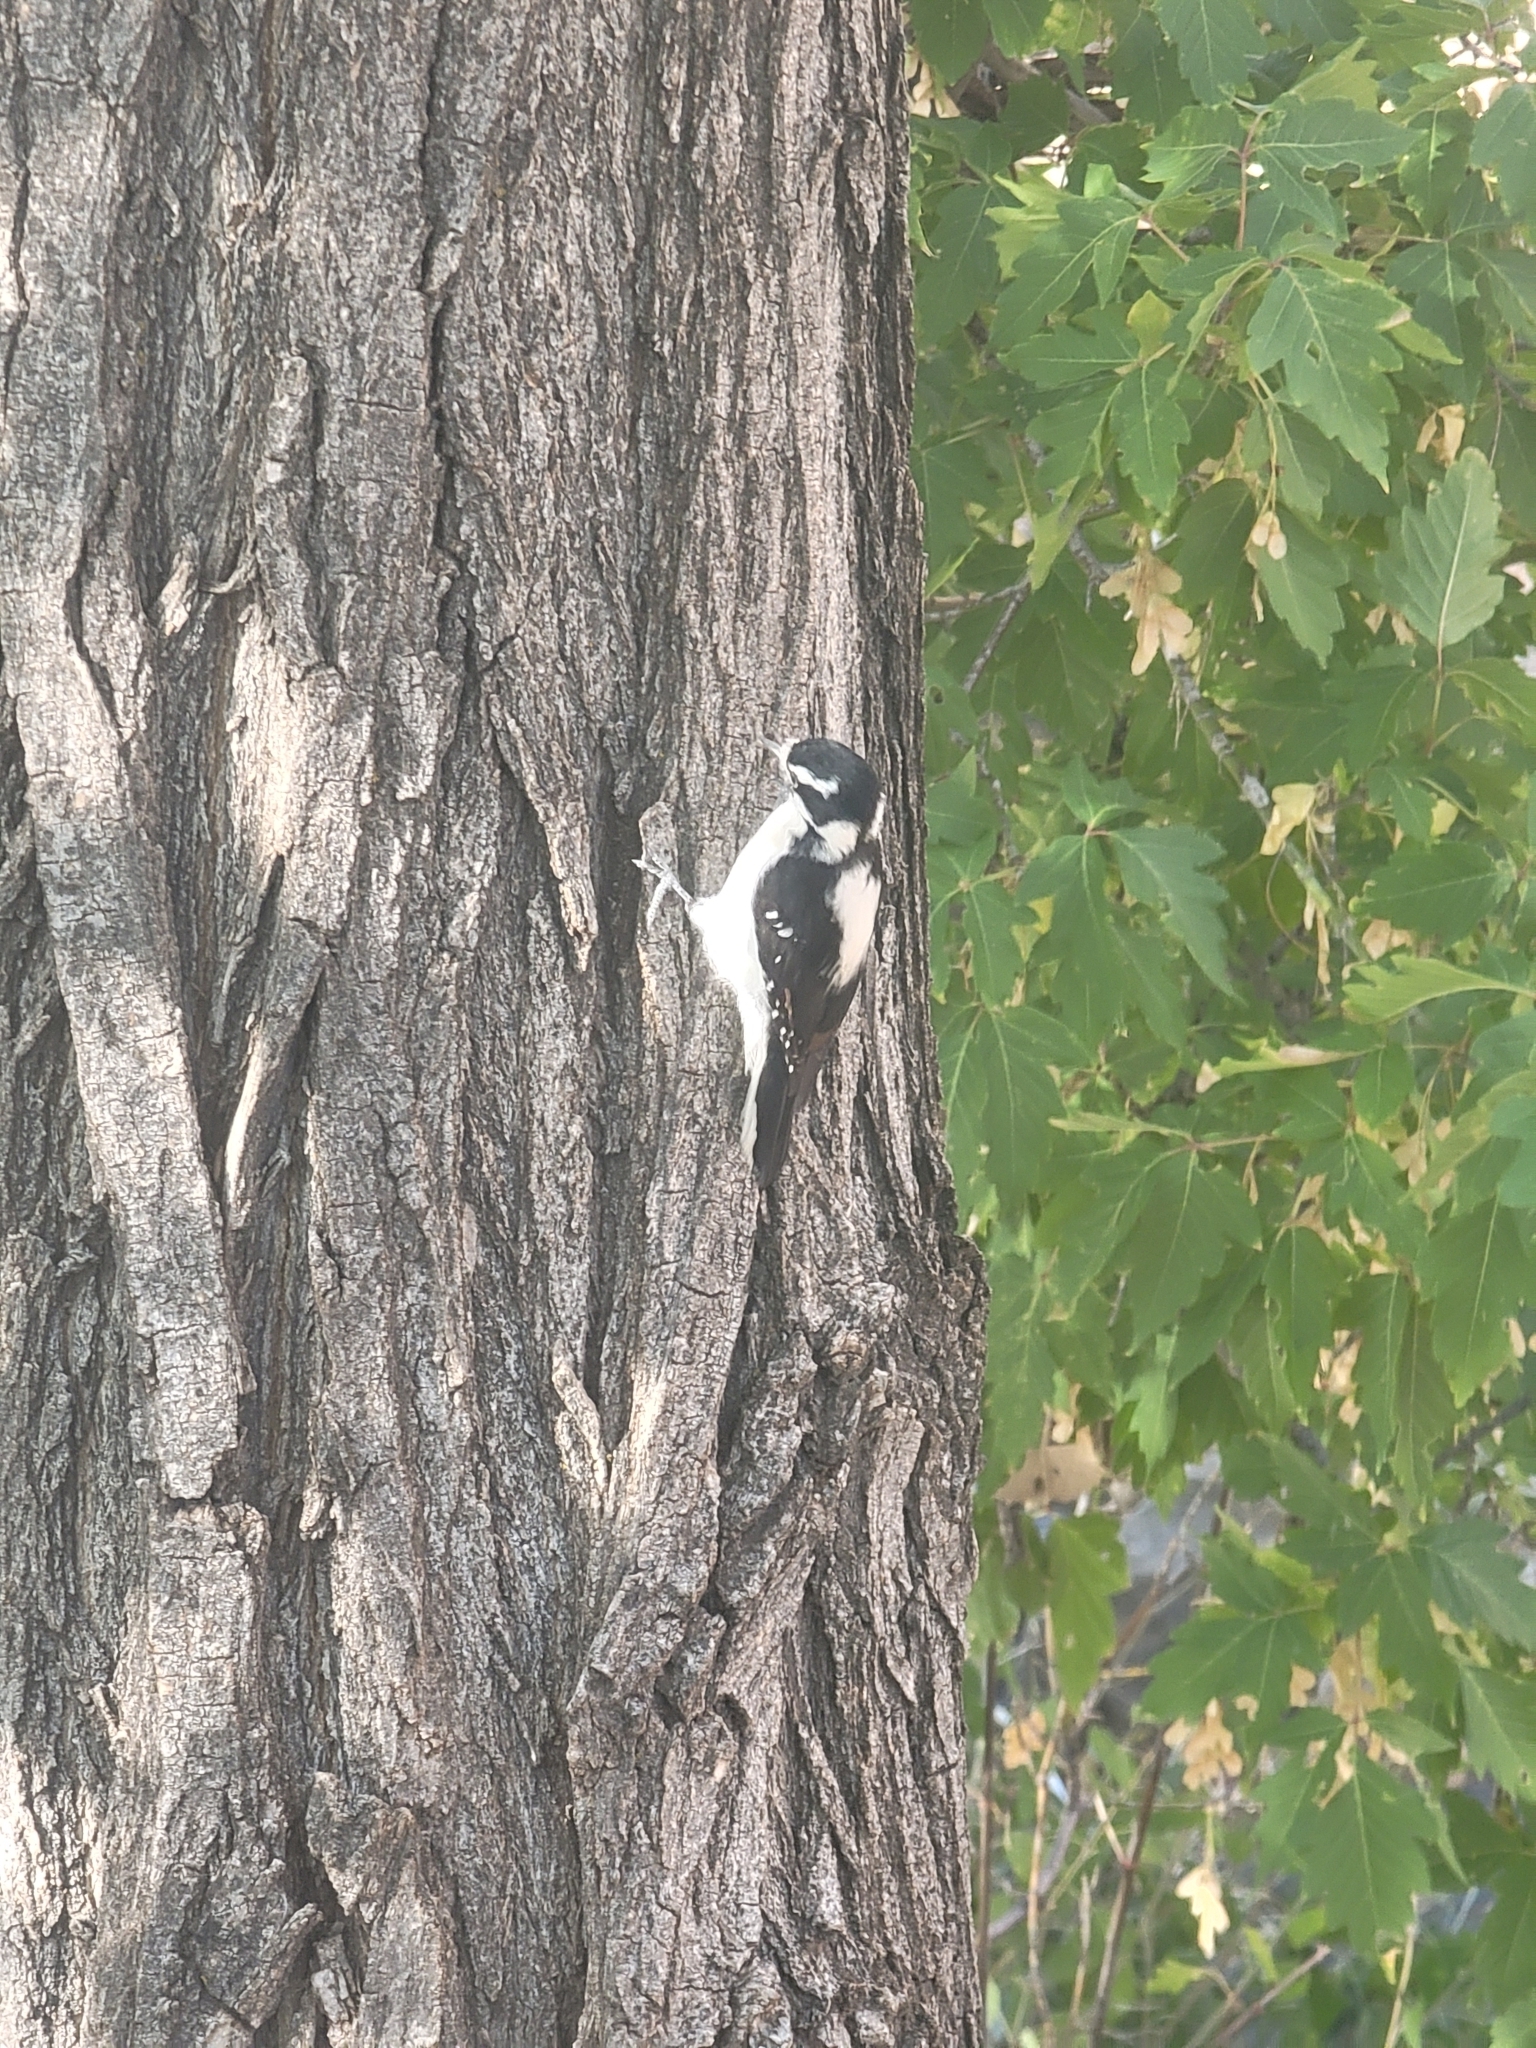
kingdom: Animalia
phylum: Chordata
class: Aves
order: Piciformes
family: Picidae
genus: Dryobates
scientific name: Dryobates pubescens
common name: Downy woodpecker
